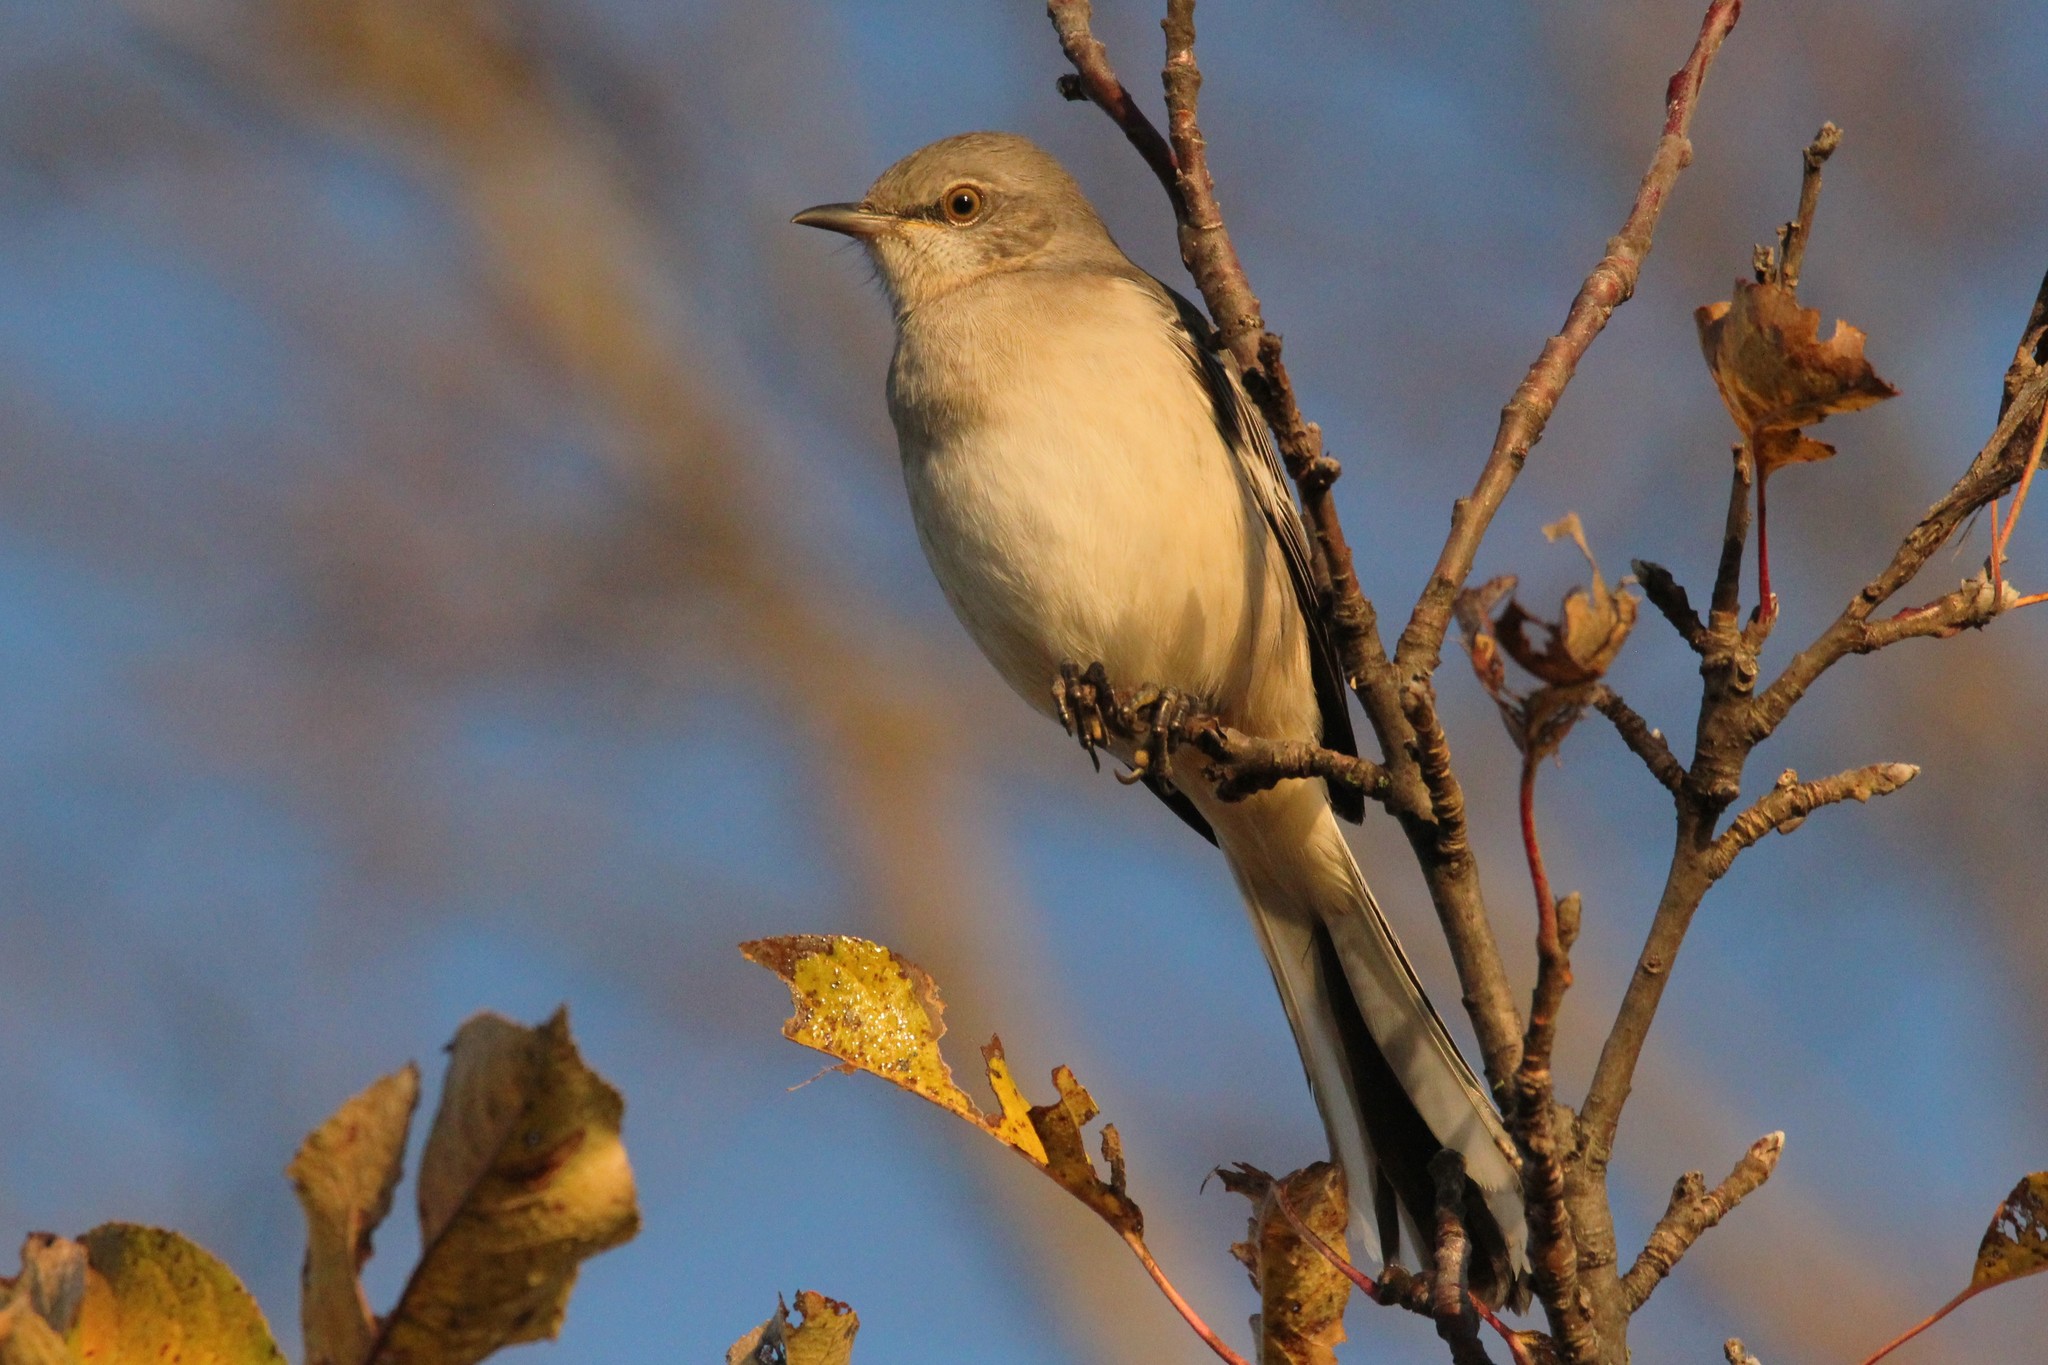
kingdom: Animalia
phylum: Chordata
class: Aves
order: Passeriformes
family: Mimidae
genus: Mimus
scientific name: Mimus polyglottos
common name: Northern mockingbird
